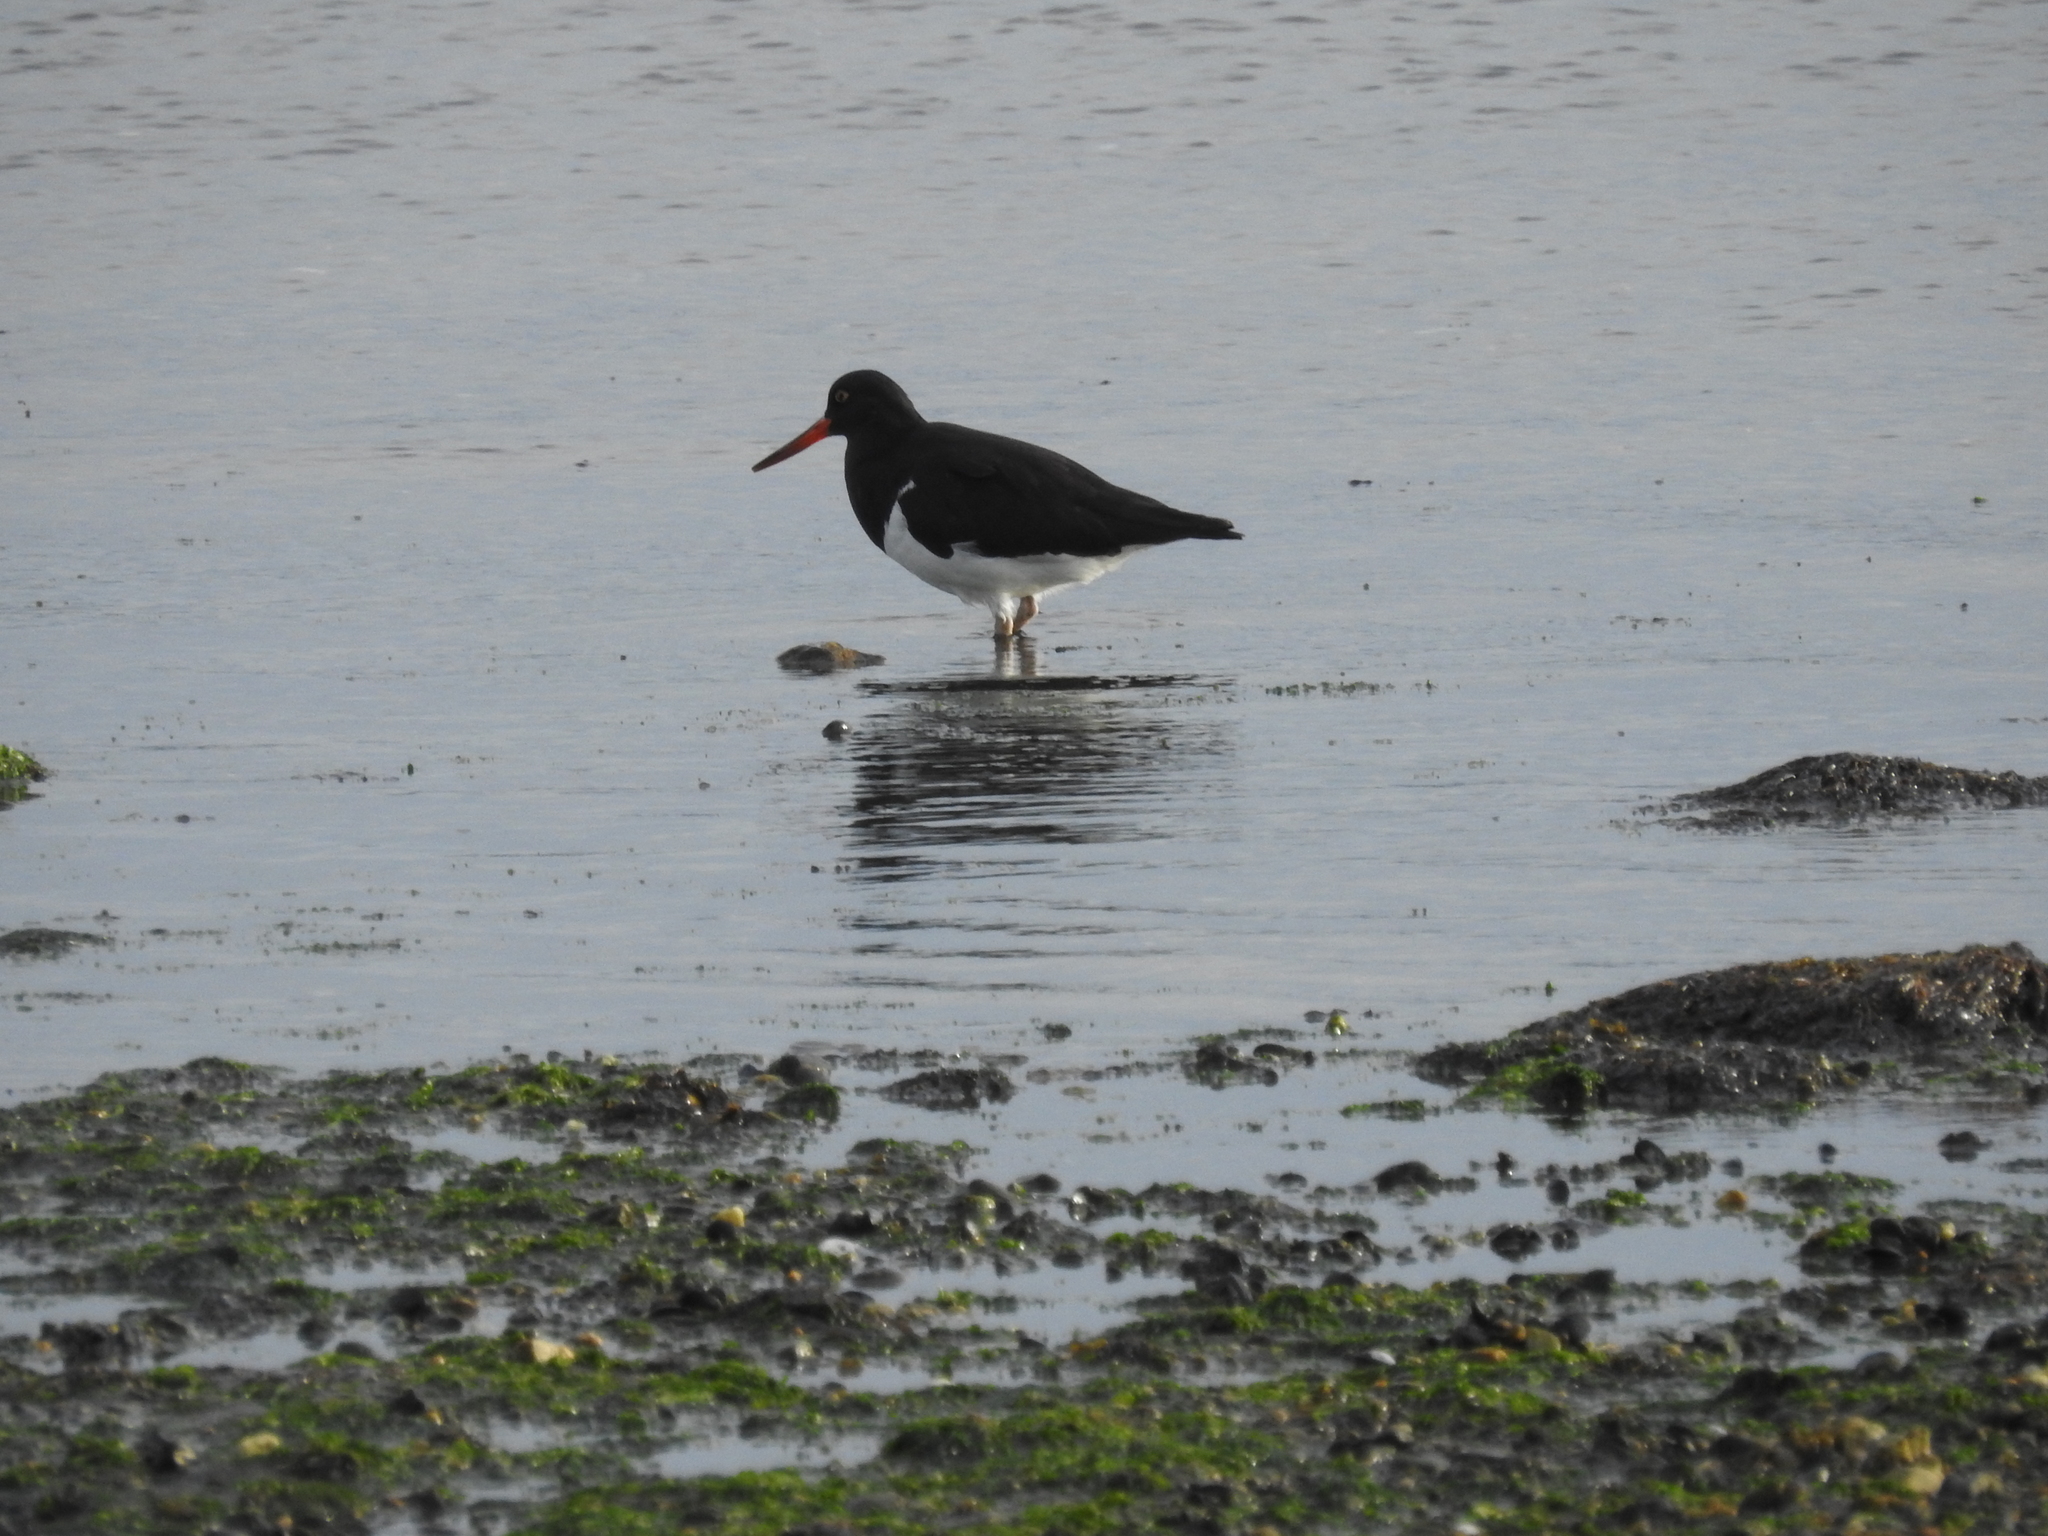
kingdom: Animalia
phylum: Chordata
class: Aves
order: Charadriiformes
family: Haematopodidae
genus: Haematopus
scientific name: Haematopus leucopodus
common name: Magellanic oystercatcher
